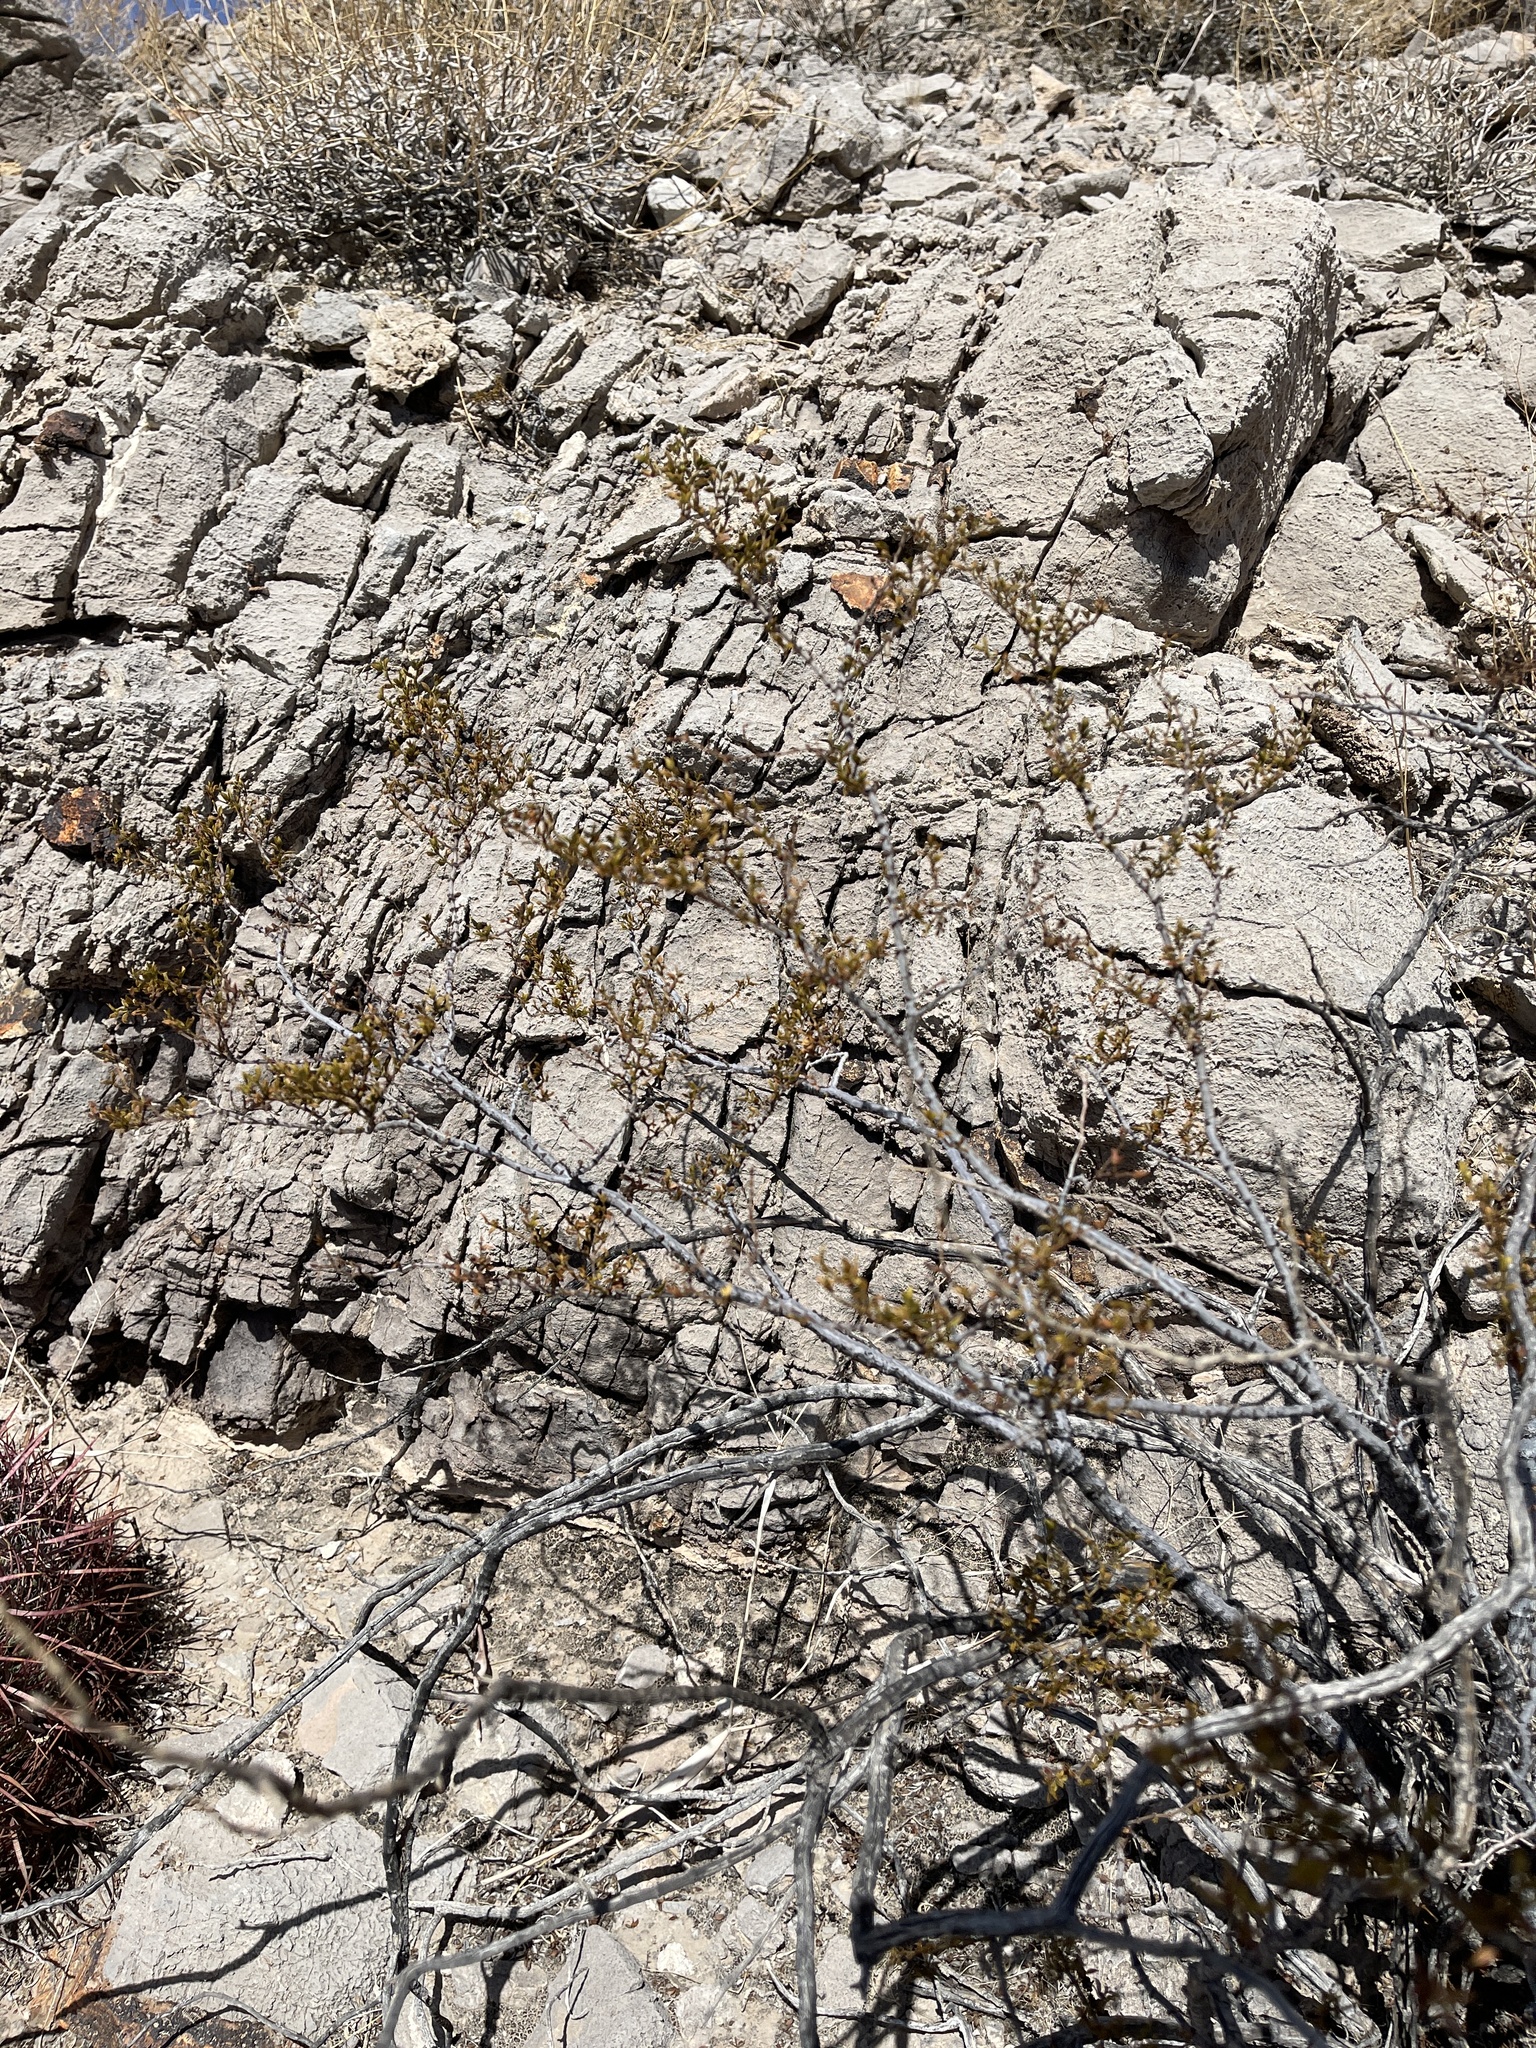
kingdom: Plantae
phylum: Tracheophyta
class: Magnoliopsida
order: Zygophyllales
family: Zygophyllaceae
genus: Larrea
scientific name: Larrea tridentata
